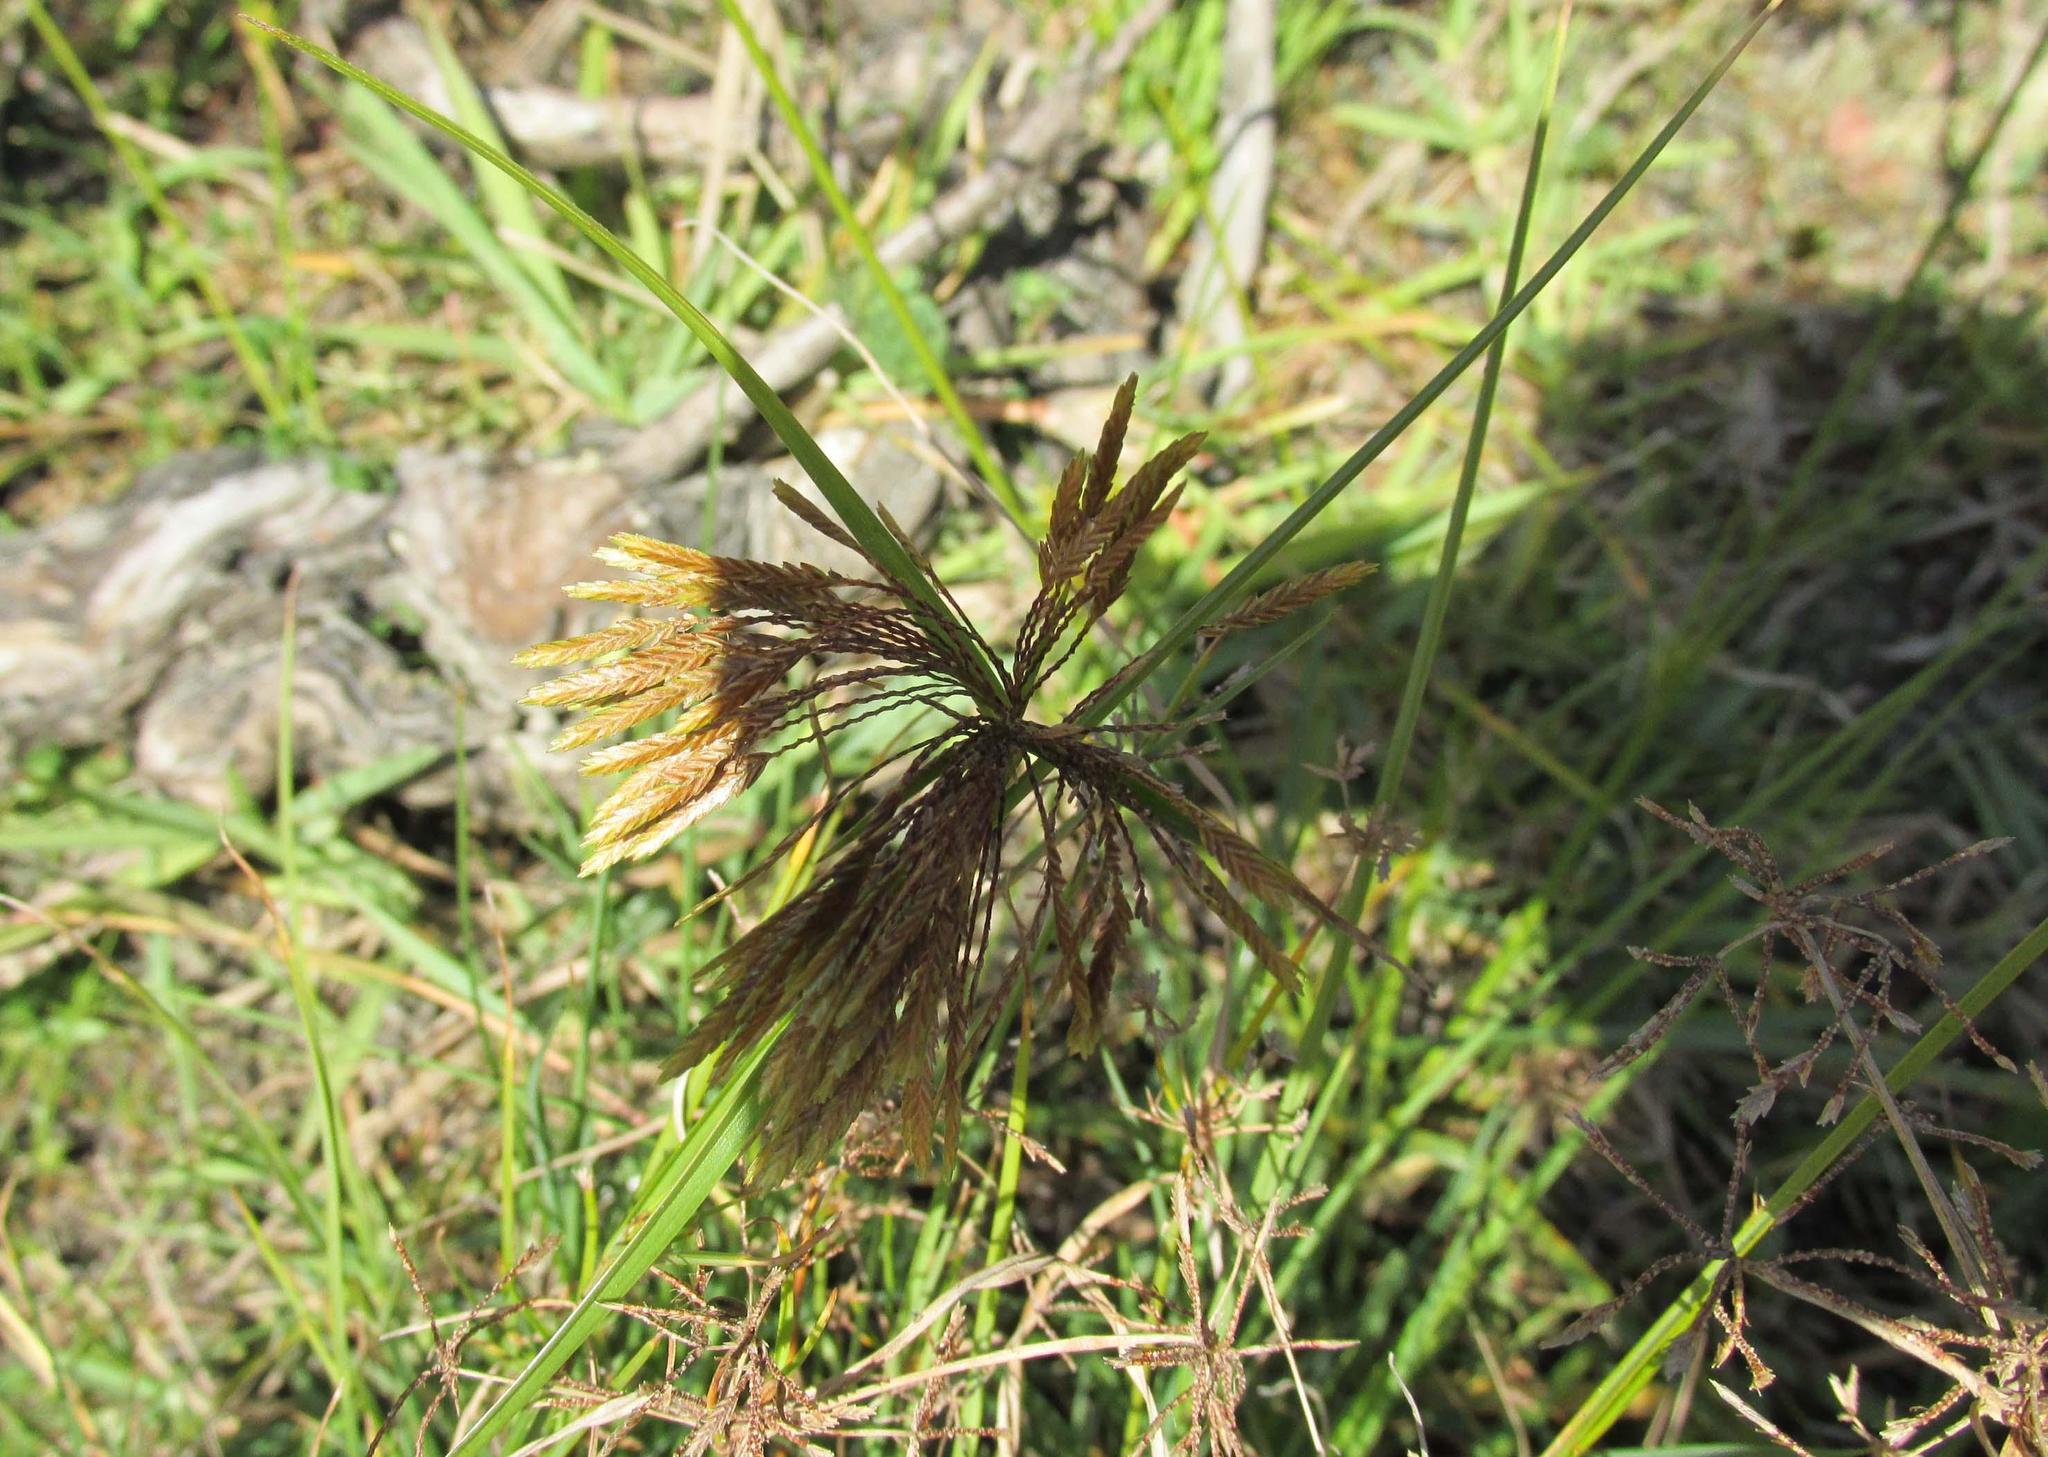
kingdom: Plantae
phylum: Tracheophyta
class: Liliopsida
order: Poales
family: Cyperaceae
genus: Cyperus
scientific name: Cyperus polystachyos
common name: Bunchy flat sedge
